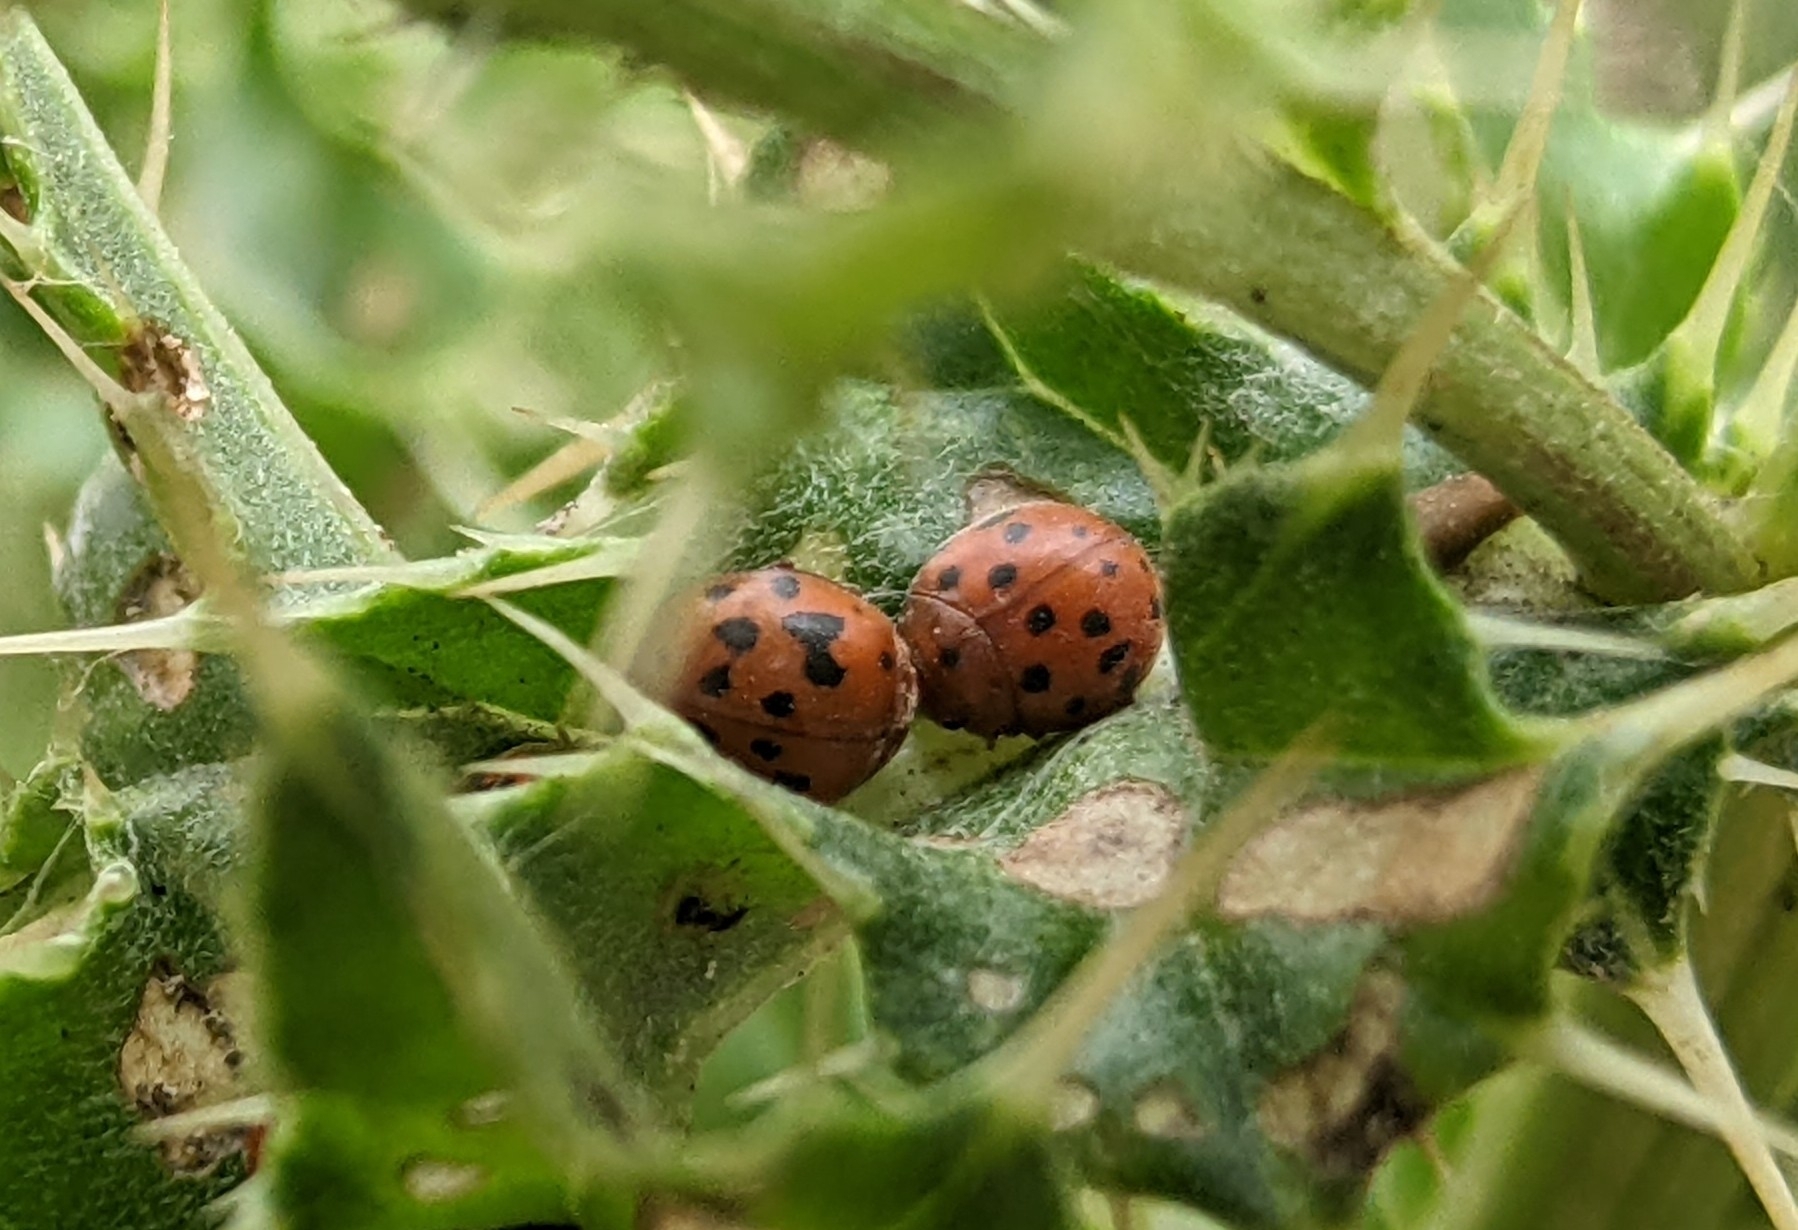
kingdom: Animalia
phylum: Arthropoda
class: Insecta
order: Coleoptera
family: Coccinellidae
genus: Subcoccinella
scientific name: Subcoccinella vigintiquatuorpunctata
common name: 24-spot ladybird
